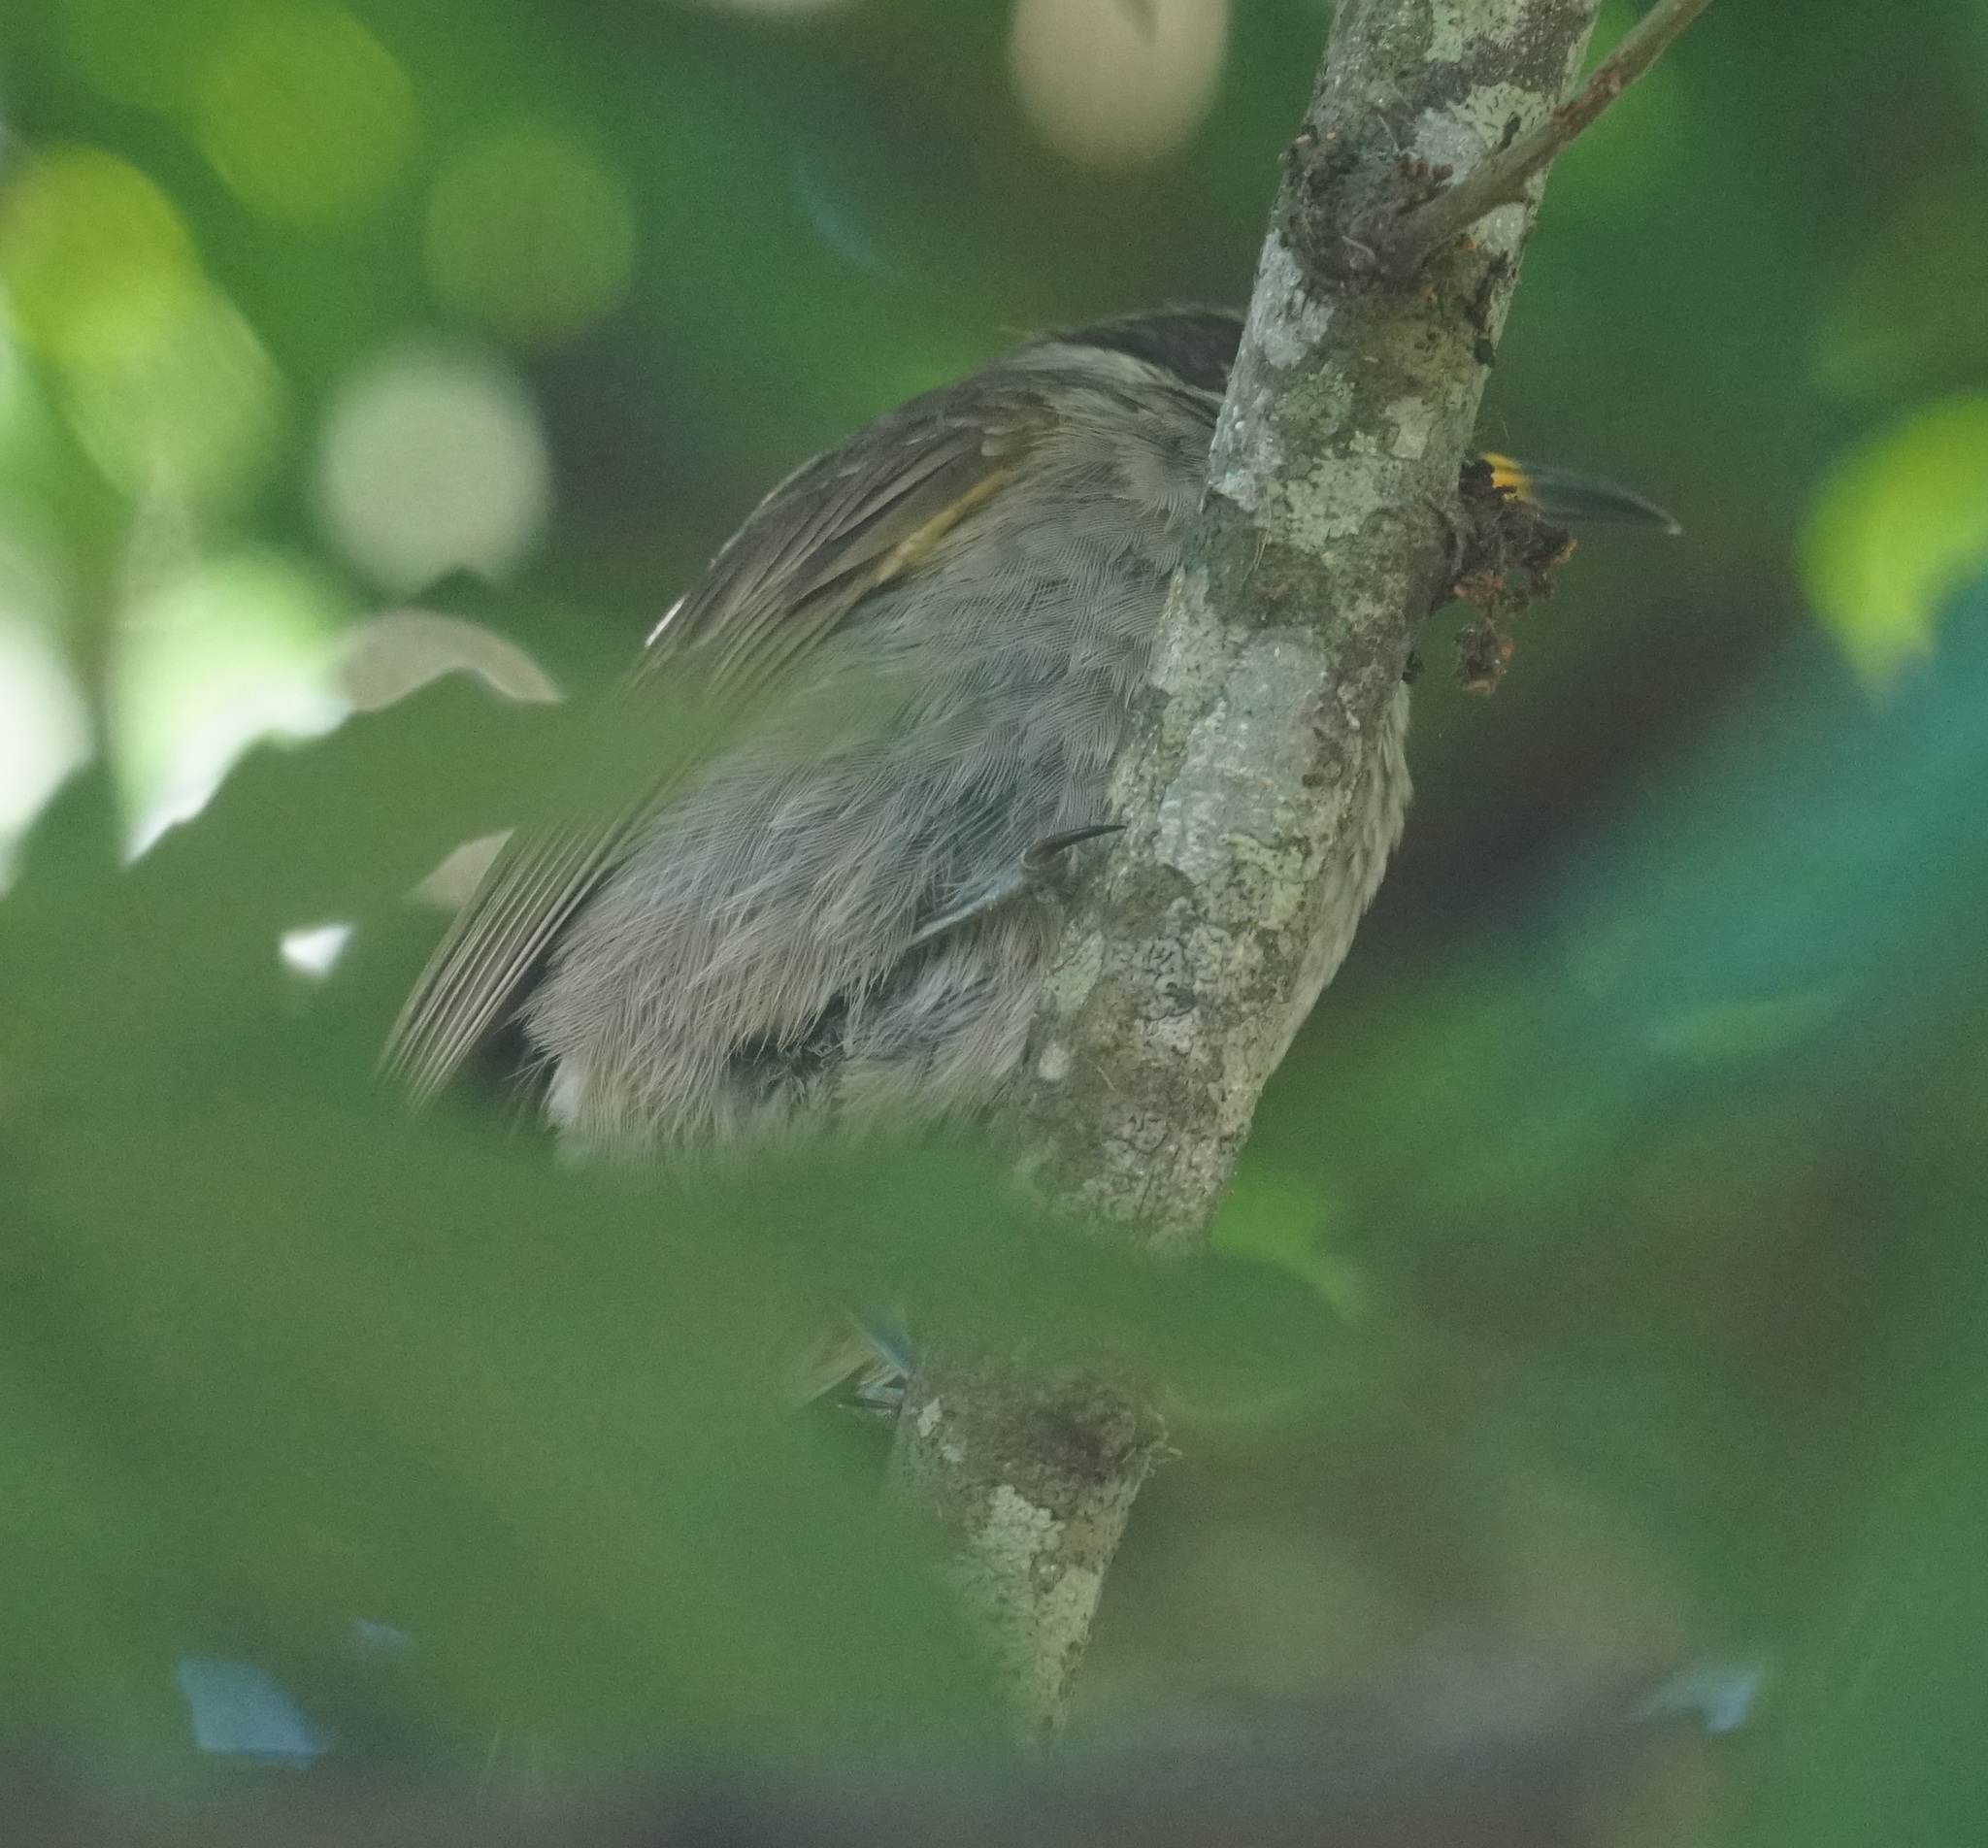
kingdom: Animalia
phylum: Chordata
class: Aves
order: Passeriformes
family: Meliphagidae
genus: Bolemoreus
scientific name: Bolemoreus frenatus
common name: Bridled honeyeater
